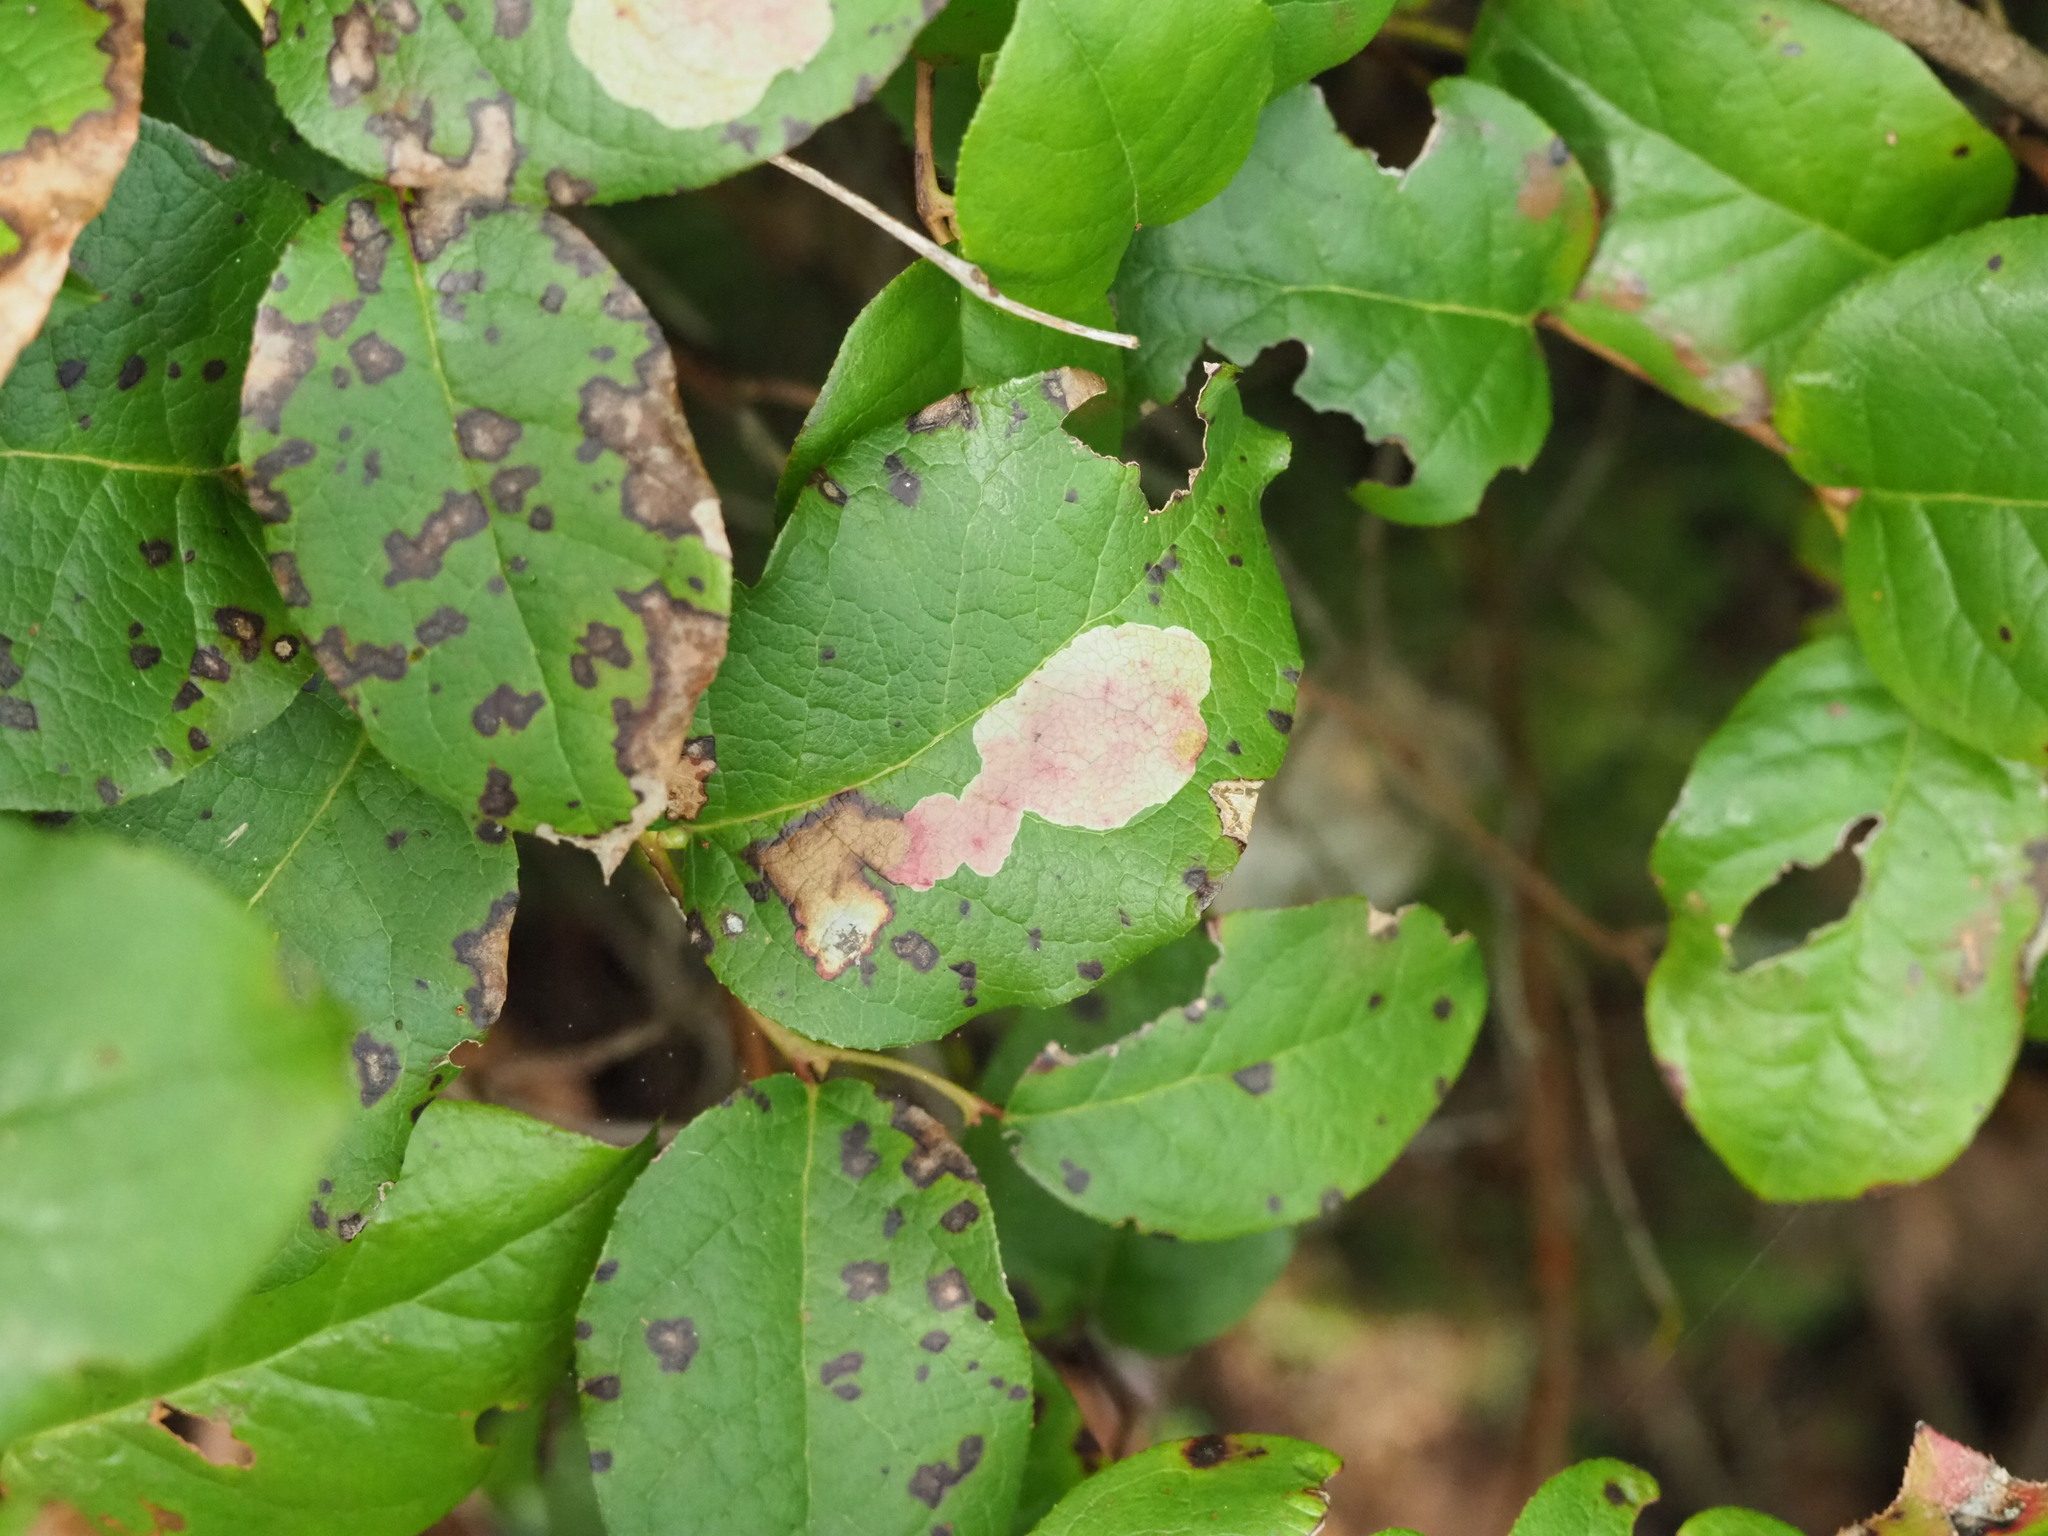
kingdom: Animalia
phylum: Arthropoda
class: Insecta
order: Lepidoptera
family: Gracillariidae
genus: Cameraria
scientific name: Cameraria gaultheriella
